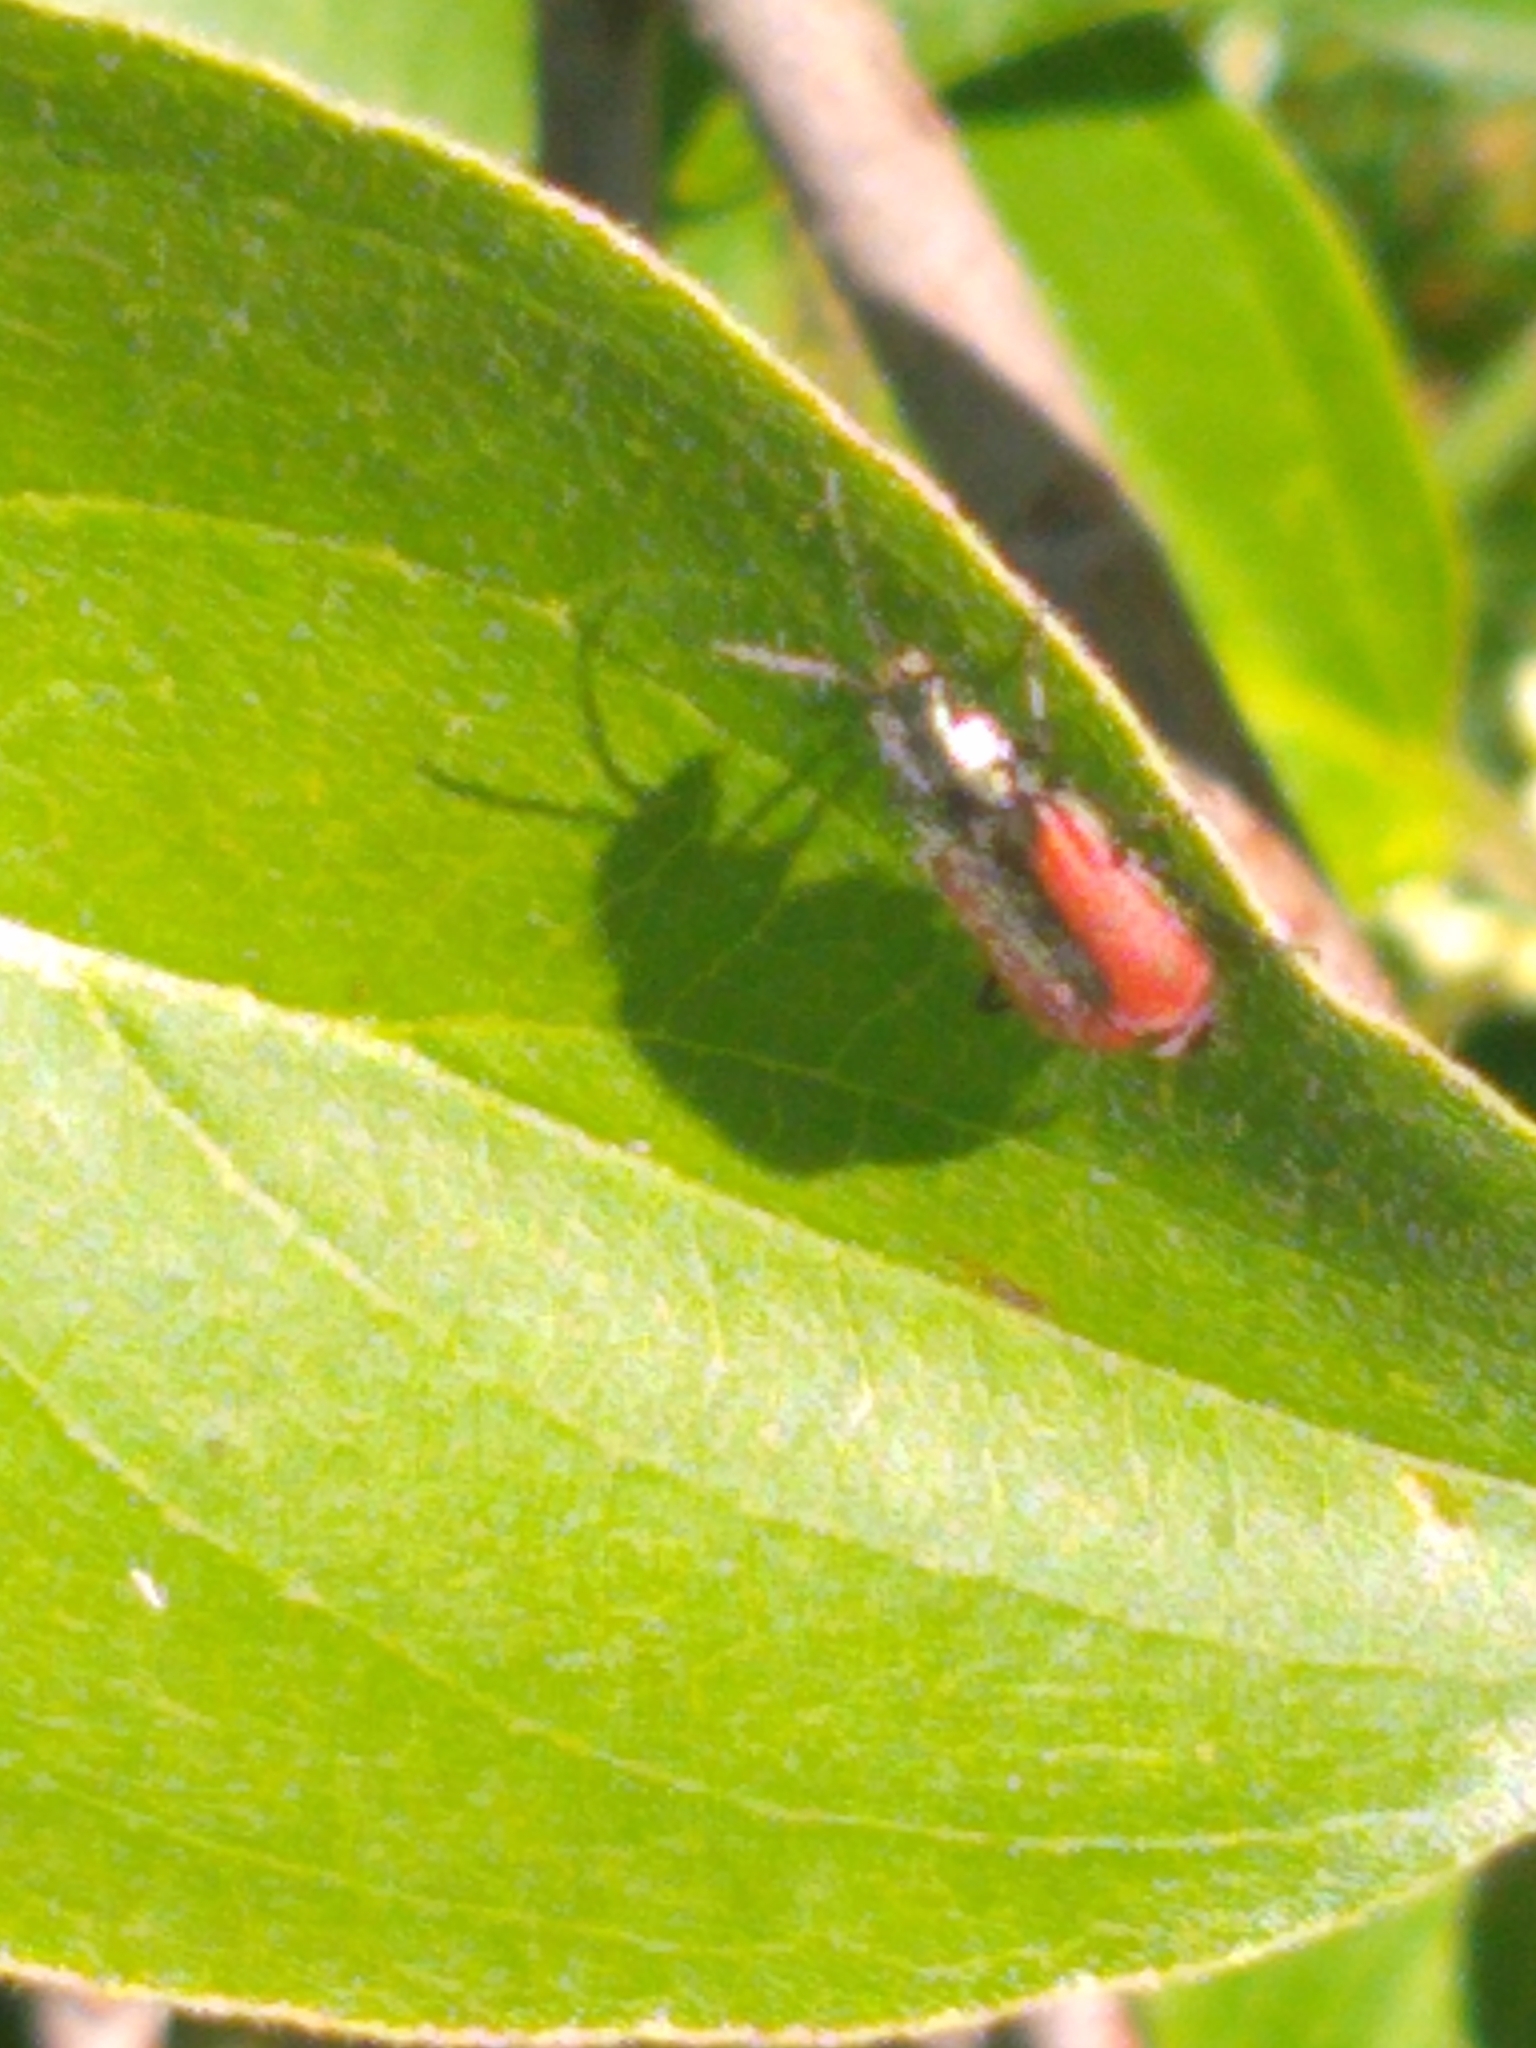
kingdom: Animalia
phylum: Arthropoda
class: Insecta
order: Coleoptera
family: Melyridae
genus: Malachius
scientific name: Malachius aeneus
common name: Scarlet malachite beetle
